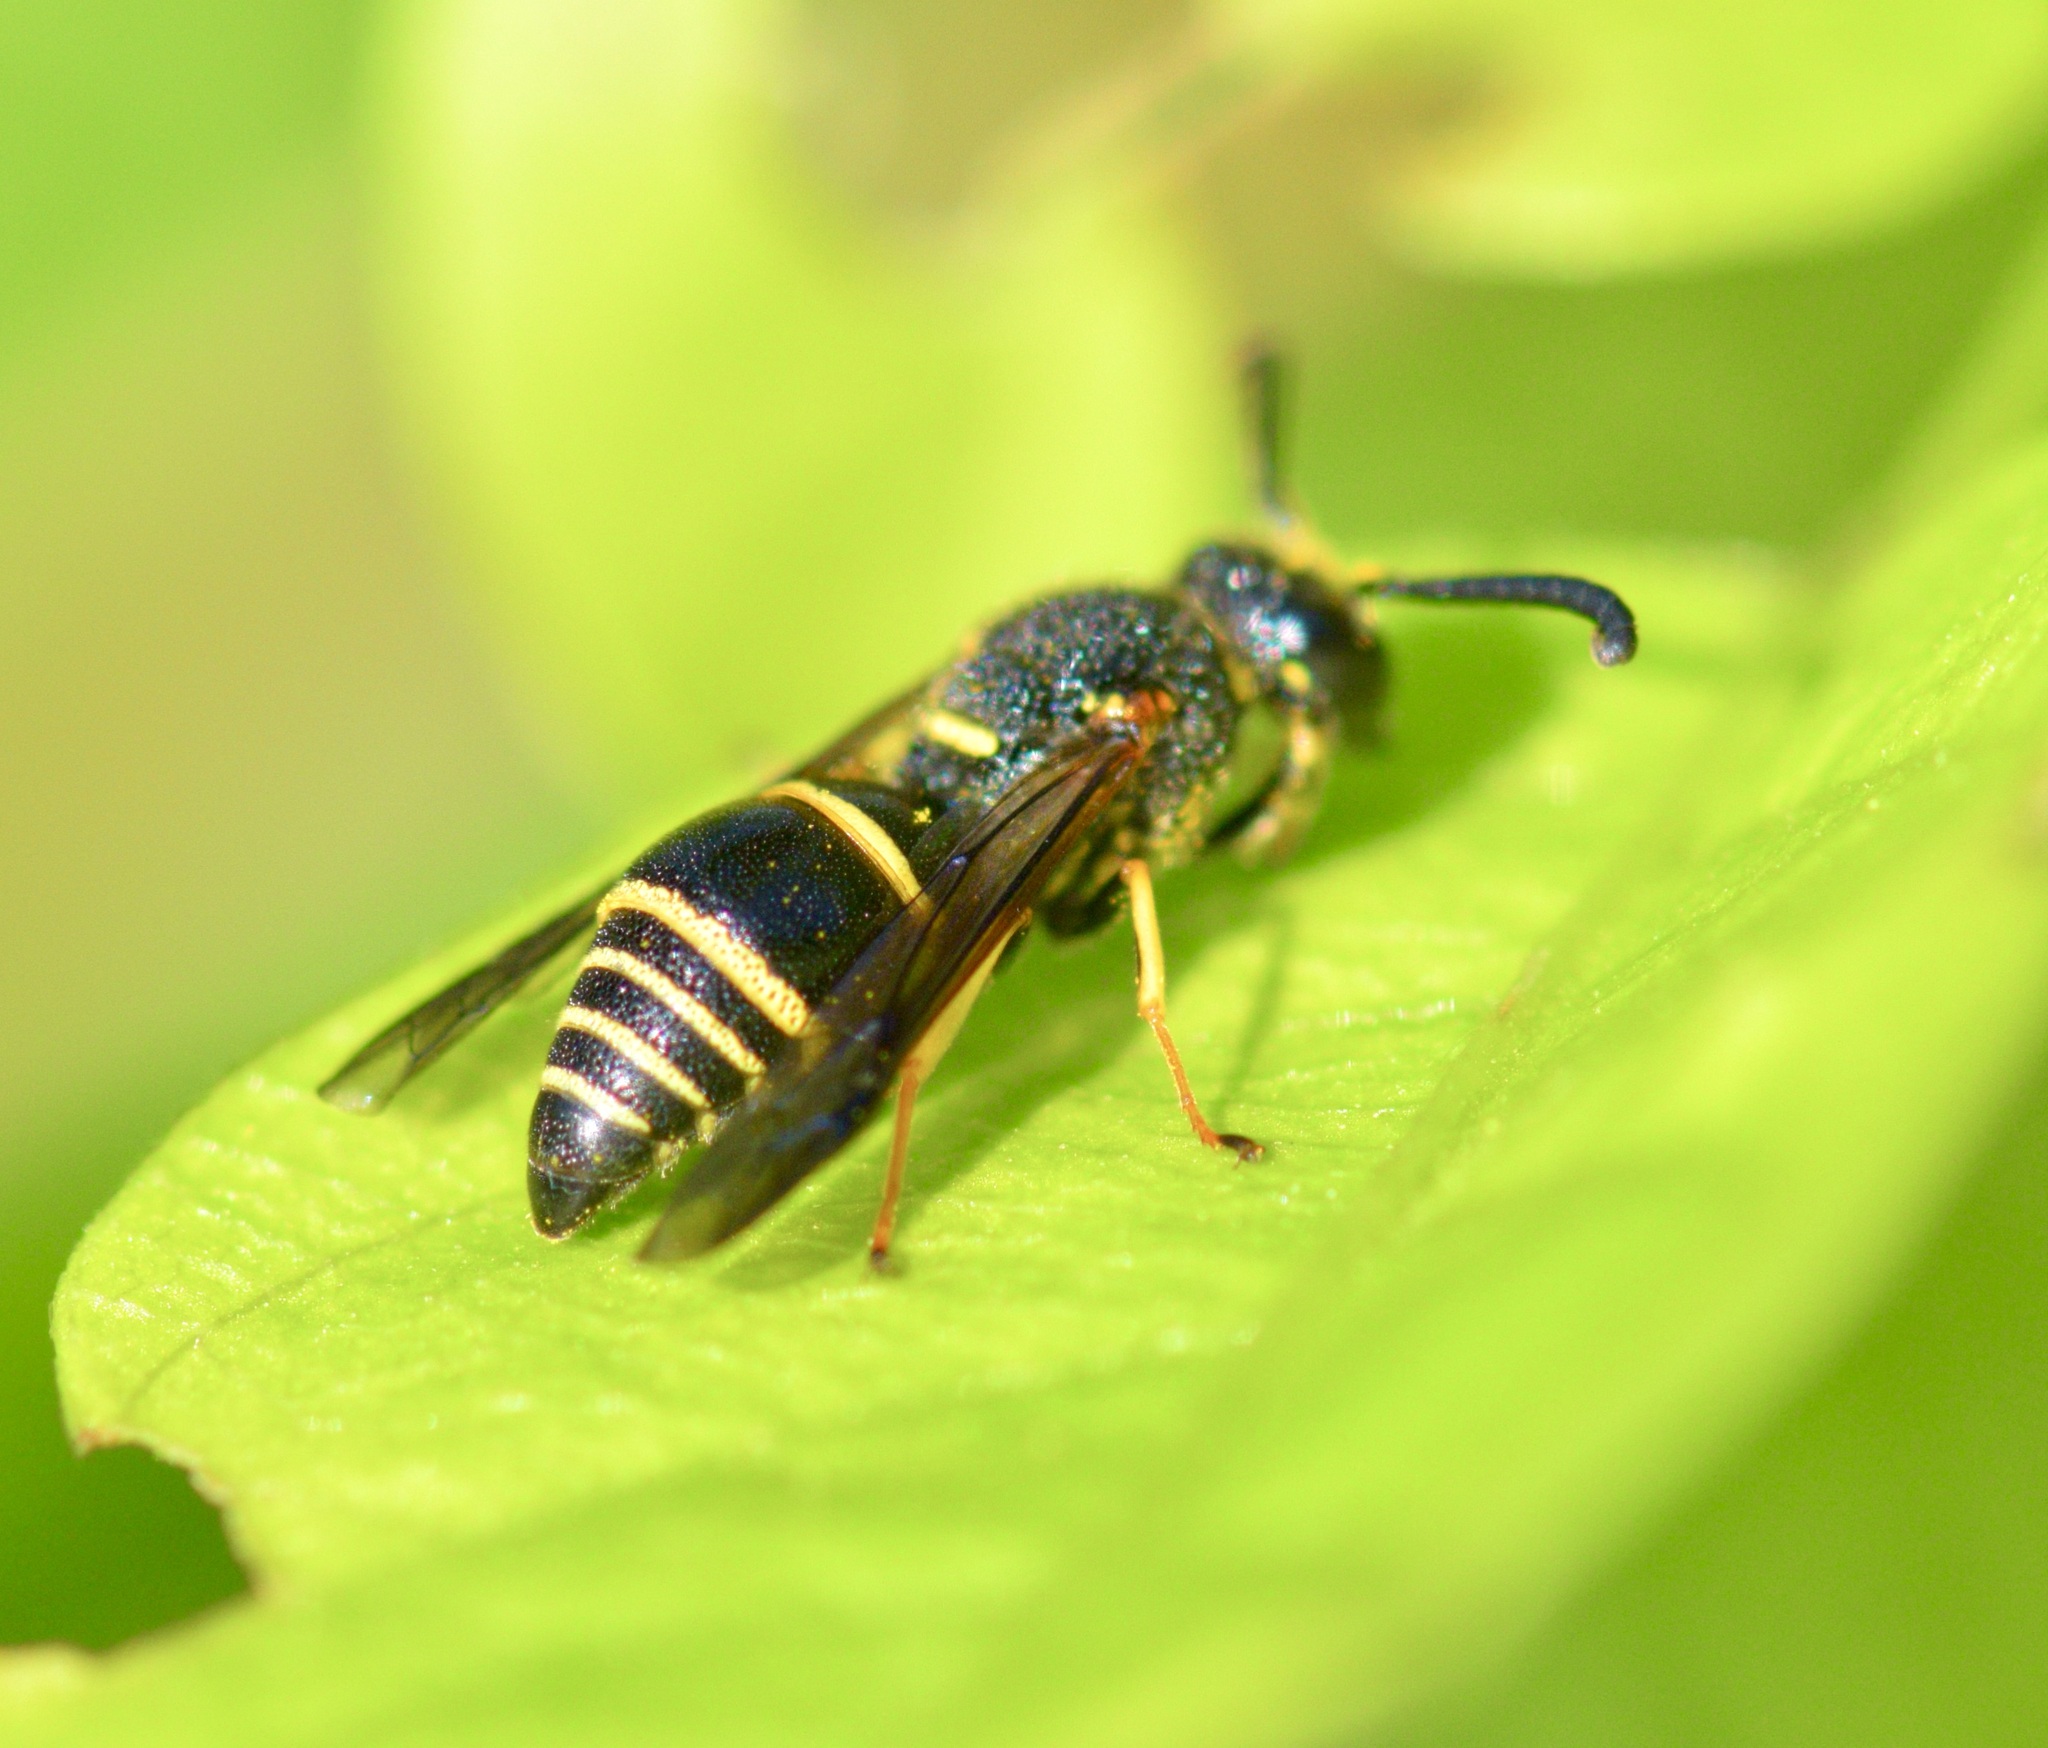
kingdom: Animalia
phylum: Arthropoda
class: Insecta
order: Hymenoptera
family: Eumenidae
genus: Euodynerus
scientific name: Euodynerus foraminatus
